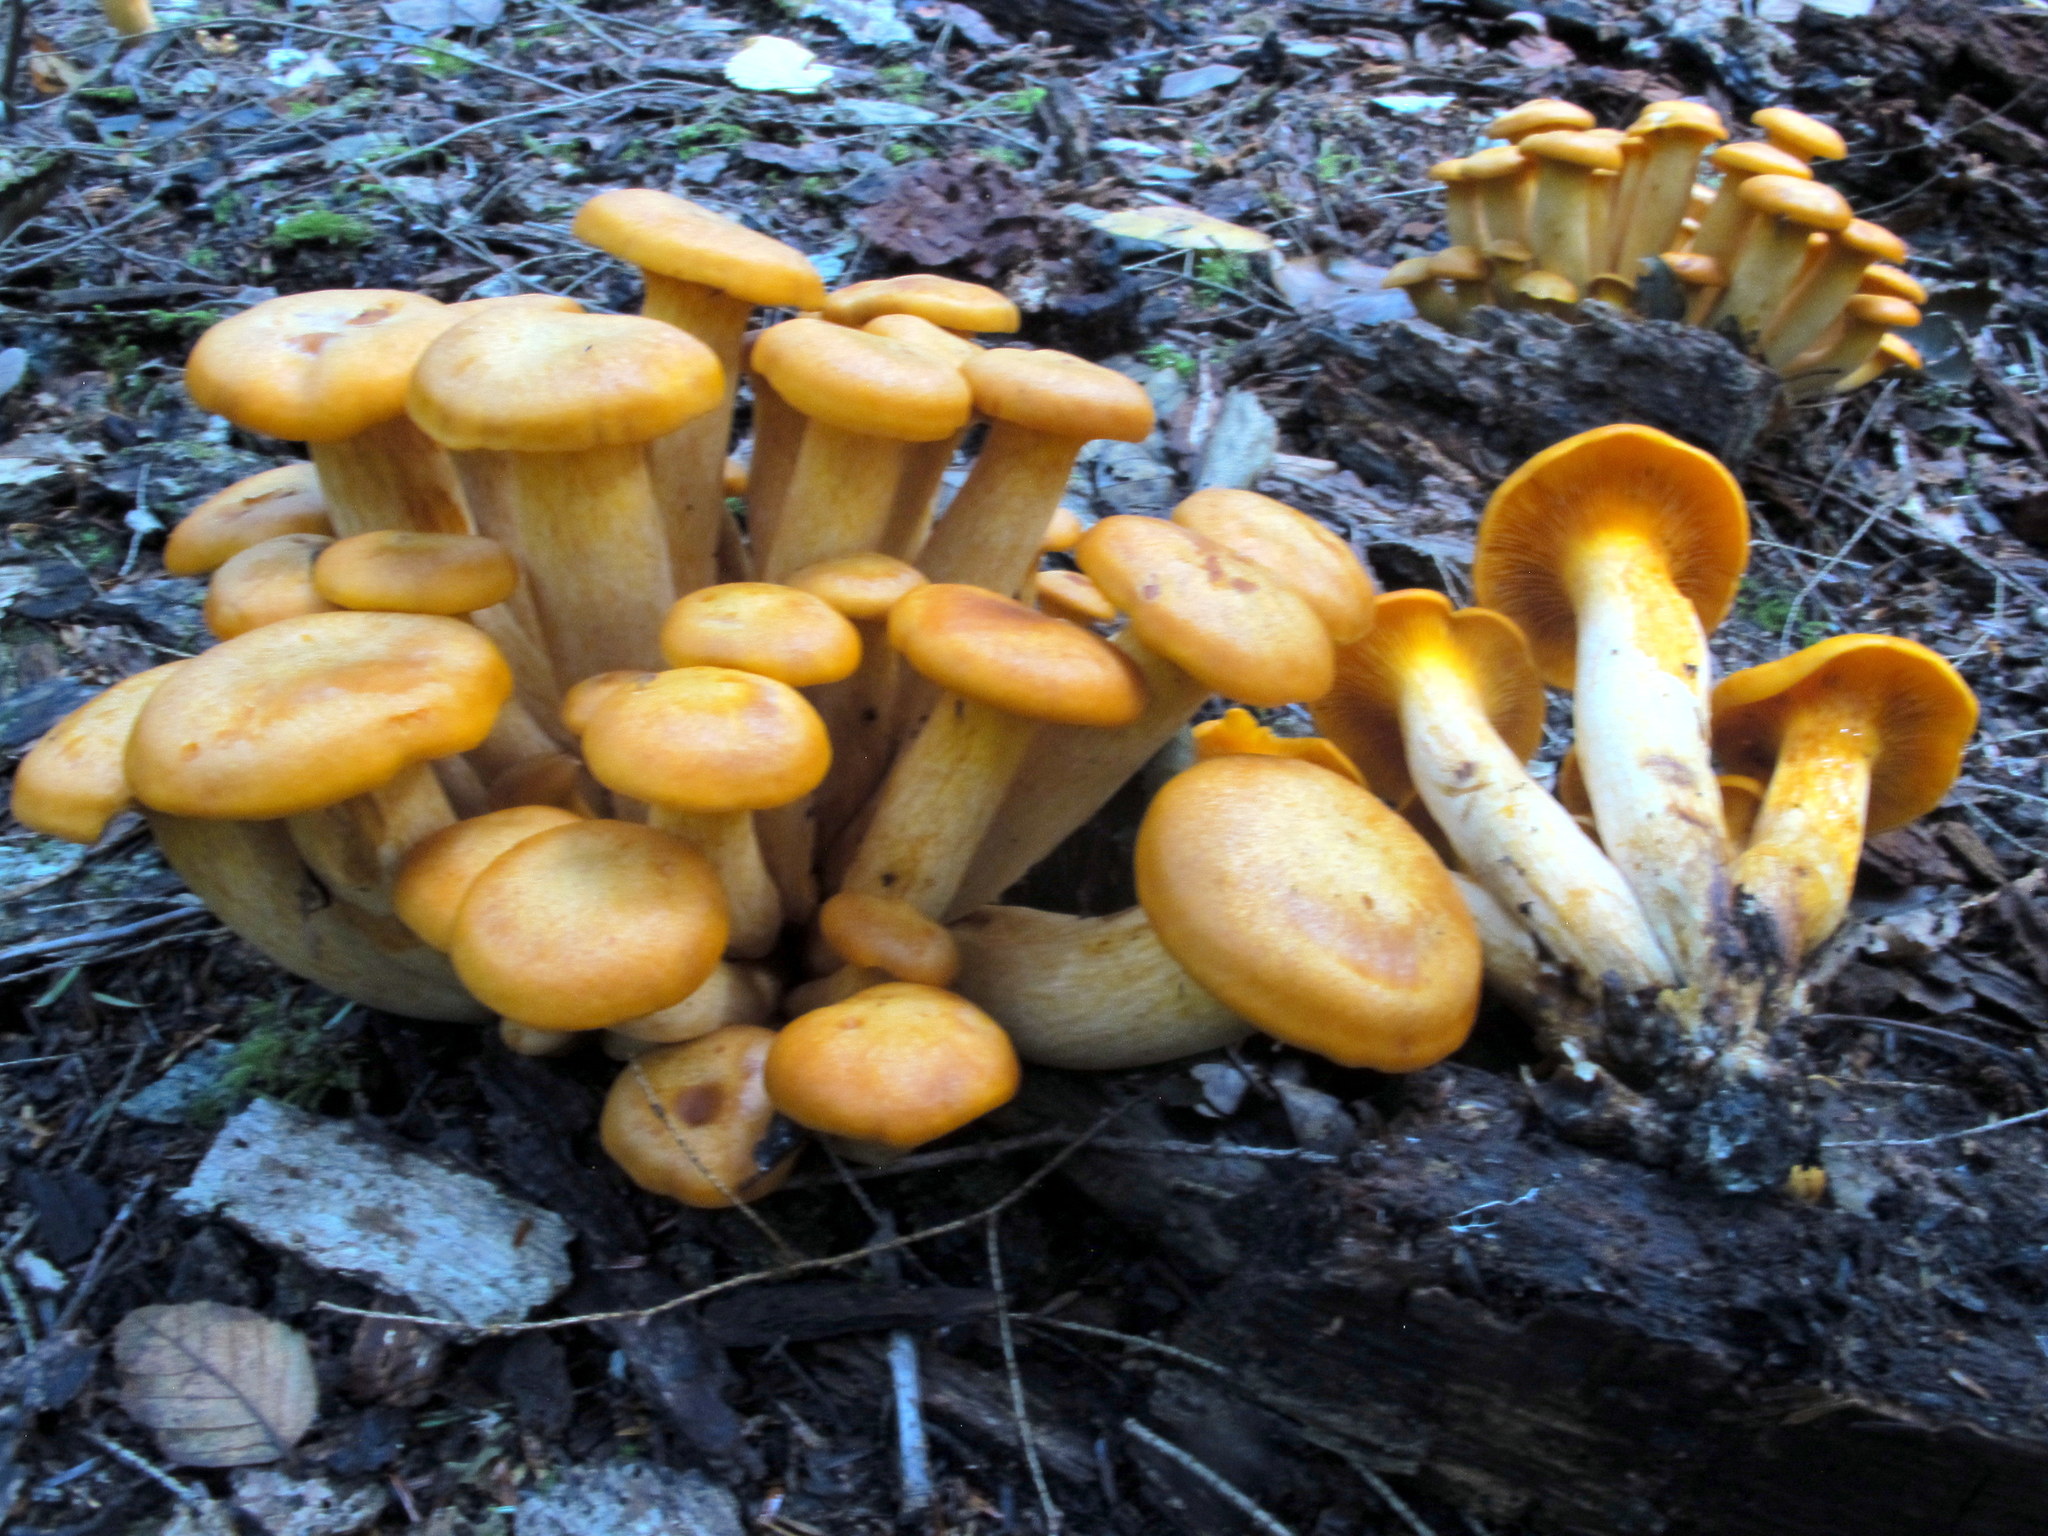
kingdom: Fungi
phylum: Basidiomycota
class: Agaricomycetes
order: Agaricales
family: Omphalotaceae
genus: Omphalotus
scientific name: Omphalotus illudens
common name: Jack o lantern
